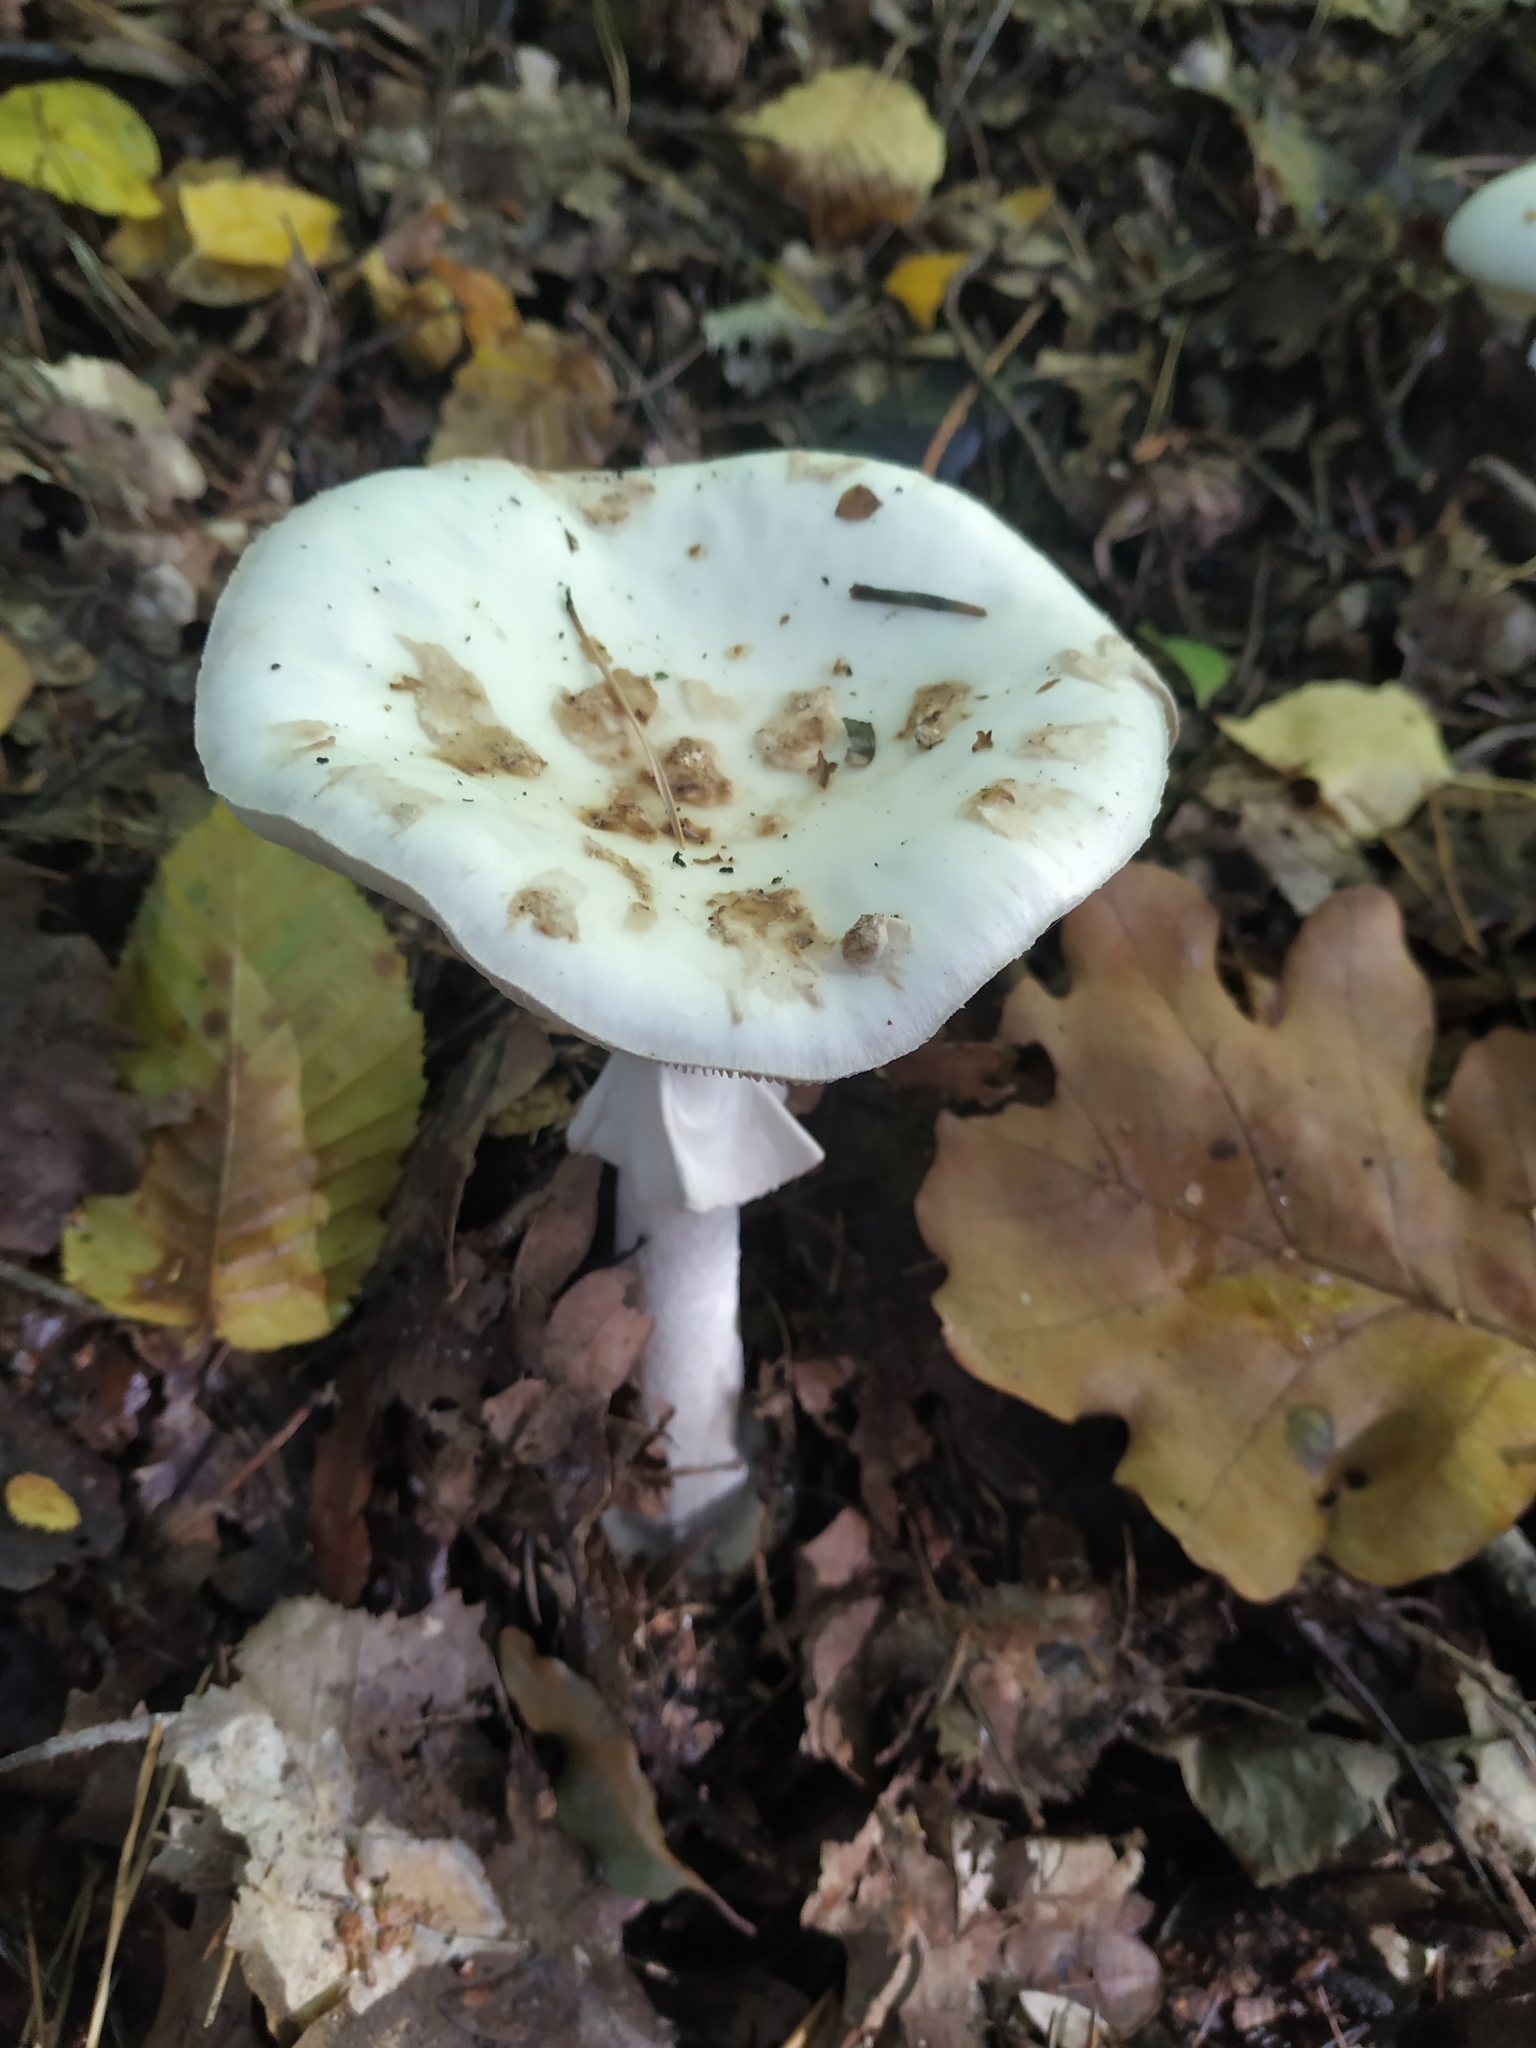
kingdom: Fungi
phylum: Basidiomycota
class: Agaricomycetes
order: Agaricales
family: Amanitaceae
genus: Amanita
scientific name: Amanita citrina
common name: False death-cap
